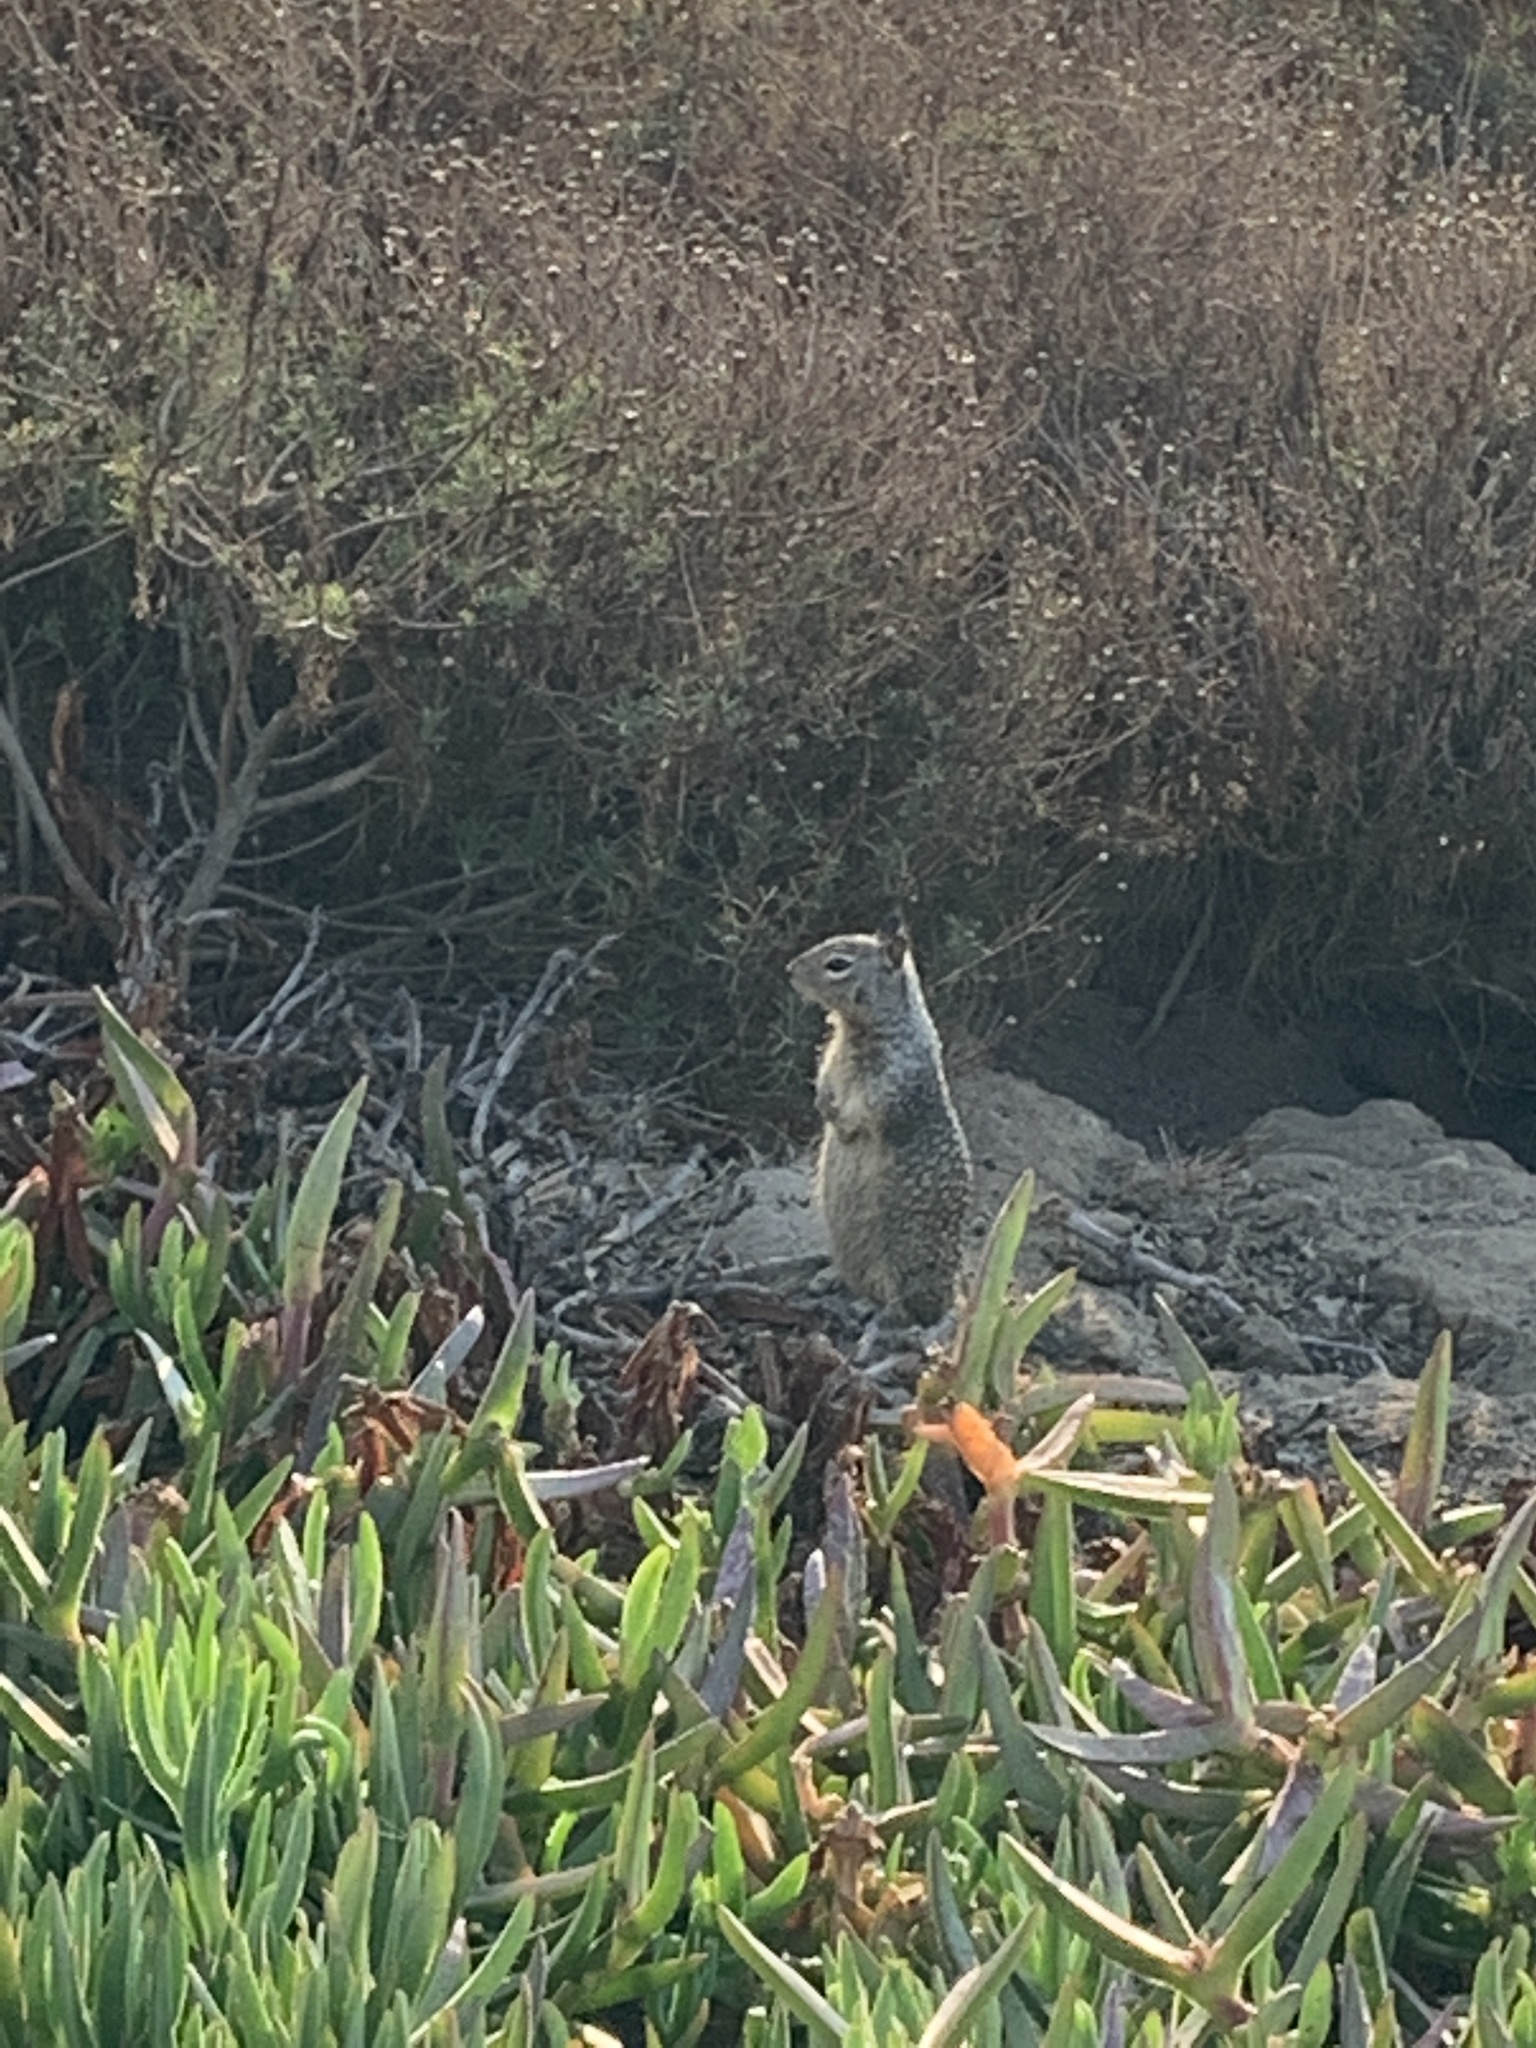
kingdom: Animalia
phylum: Chordata
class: Mammalia
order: Rodentia
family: Sciuridae
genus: Otospermophilus
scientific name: Otospermophilus beecheyi
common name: California ground squirrel
